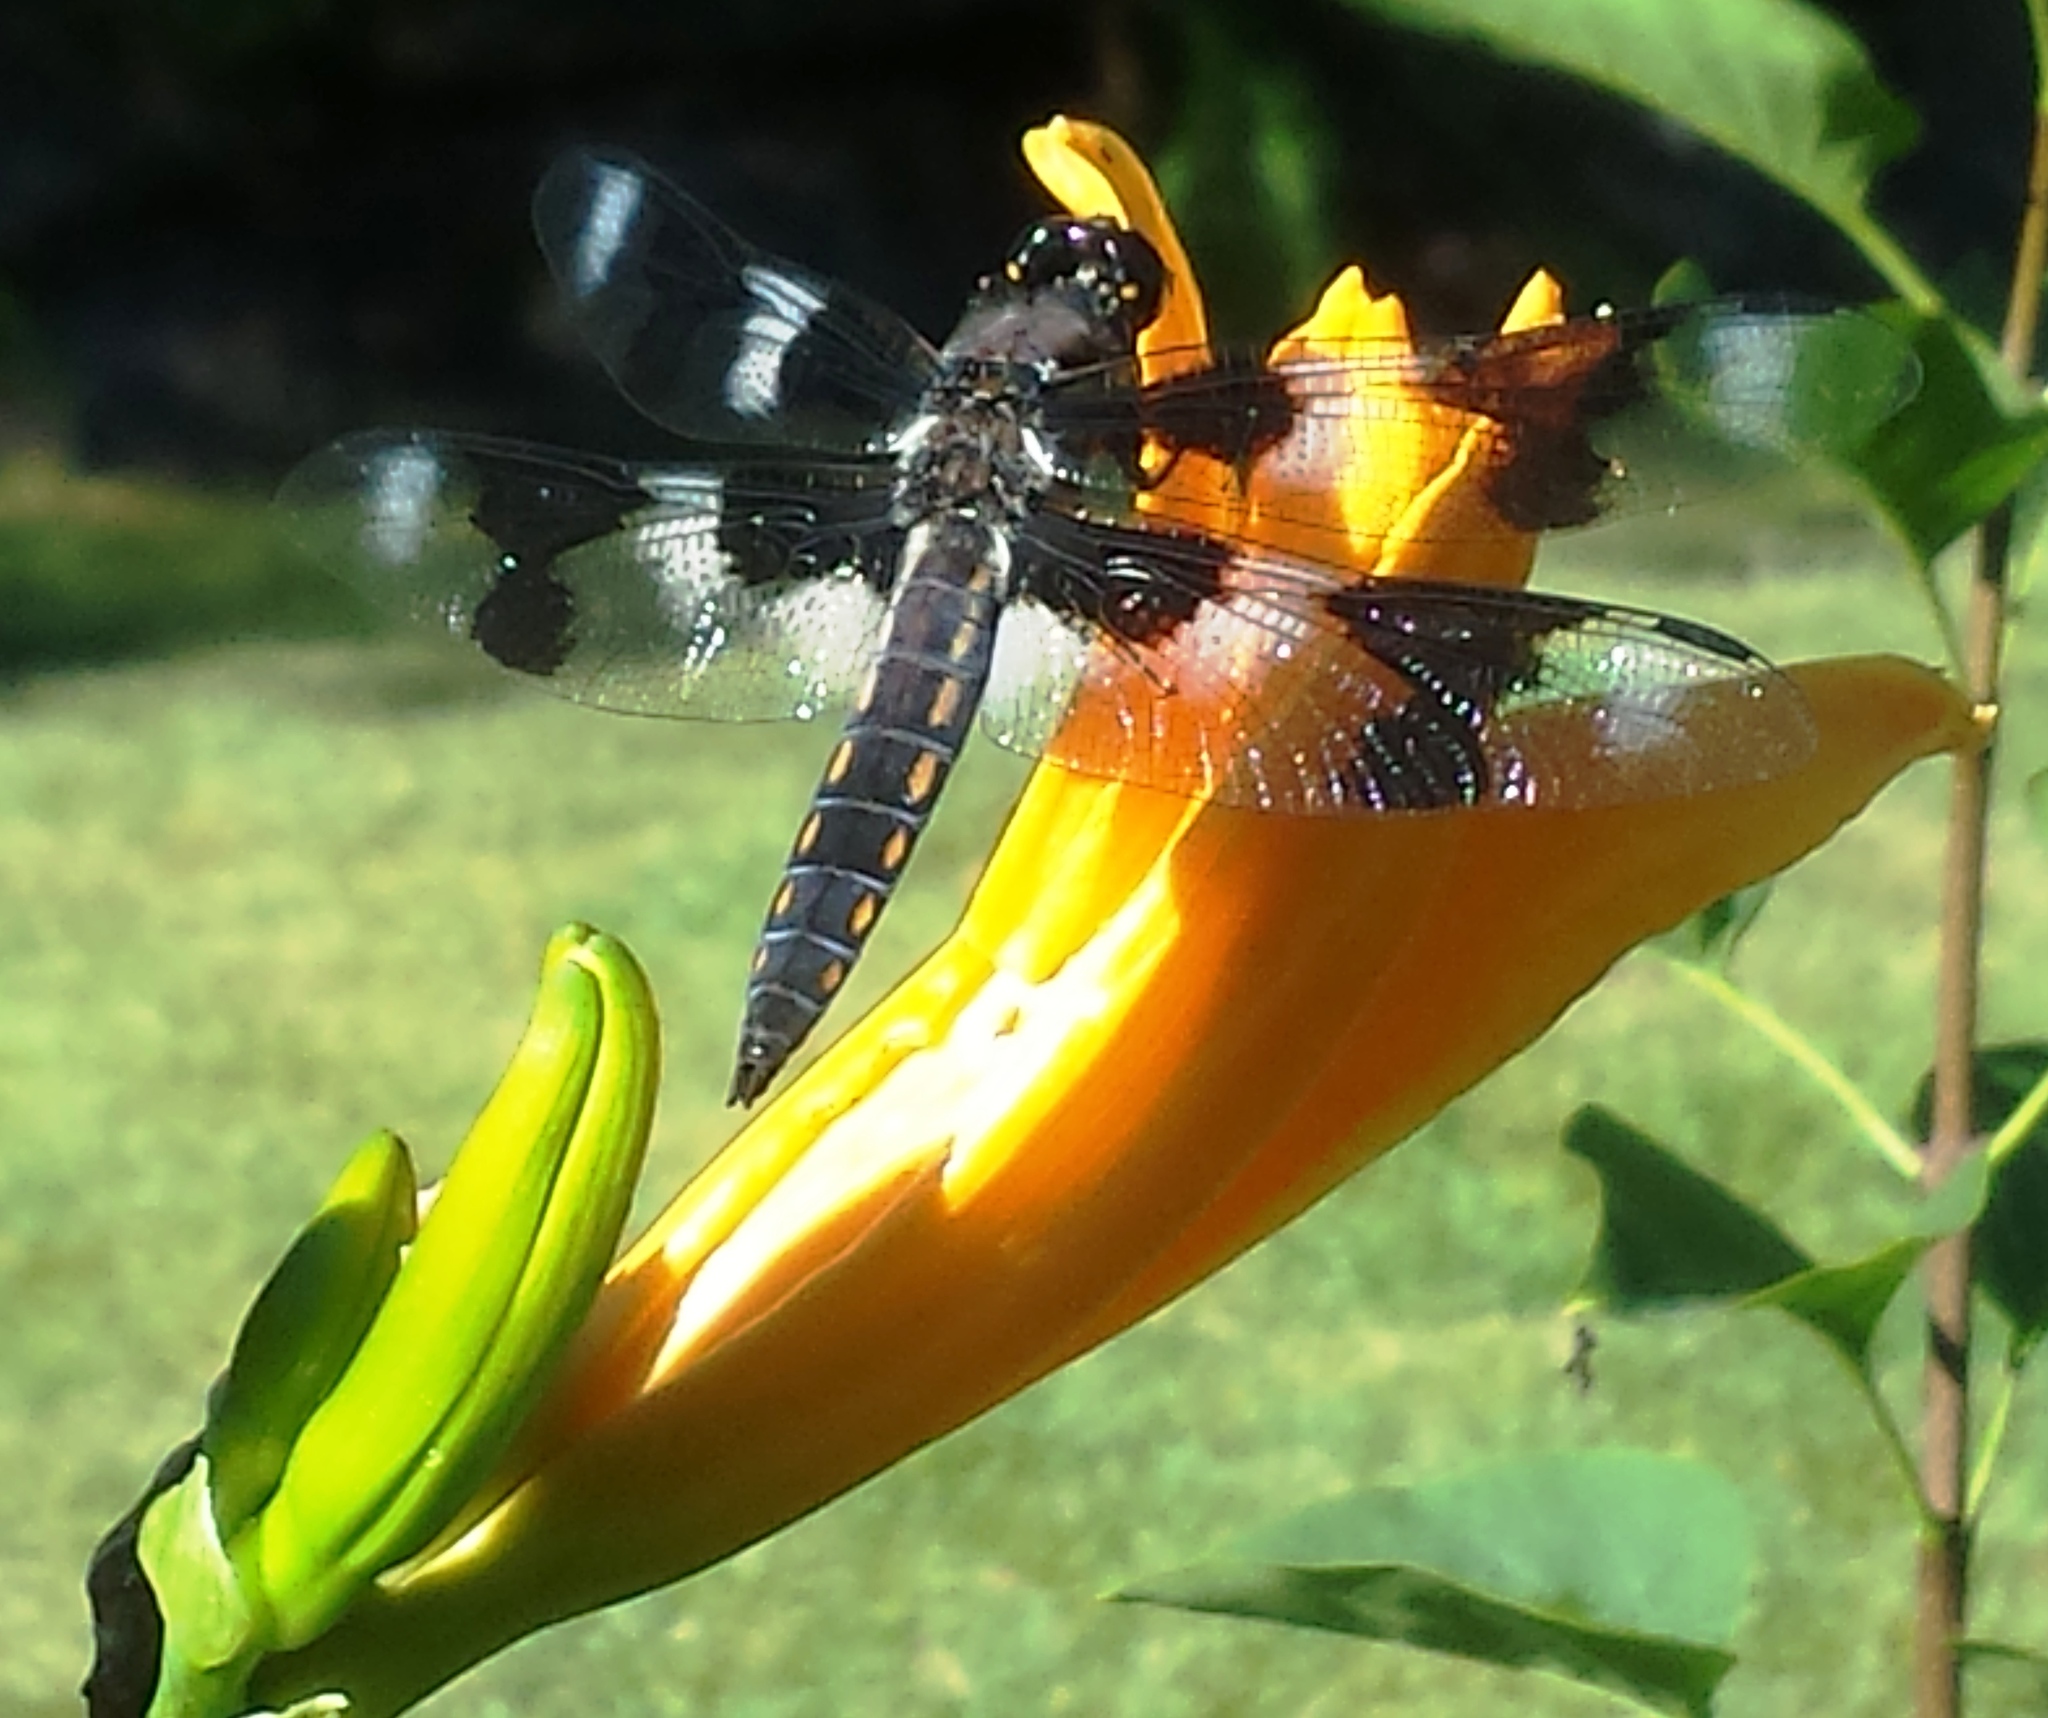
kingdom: Animalia
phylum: Arthropoda
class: Insecta
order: Odonata
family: Libellulidae
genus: Libellula
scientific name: Libellula forensis
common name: Eight-spotted skimmer
